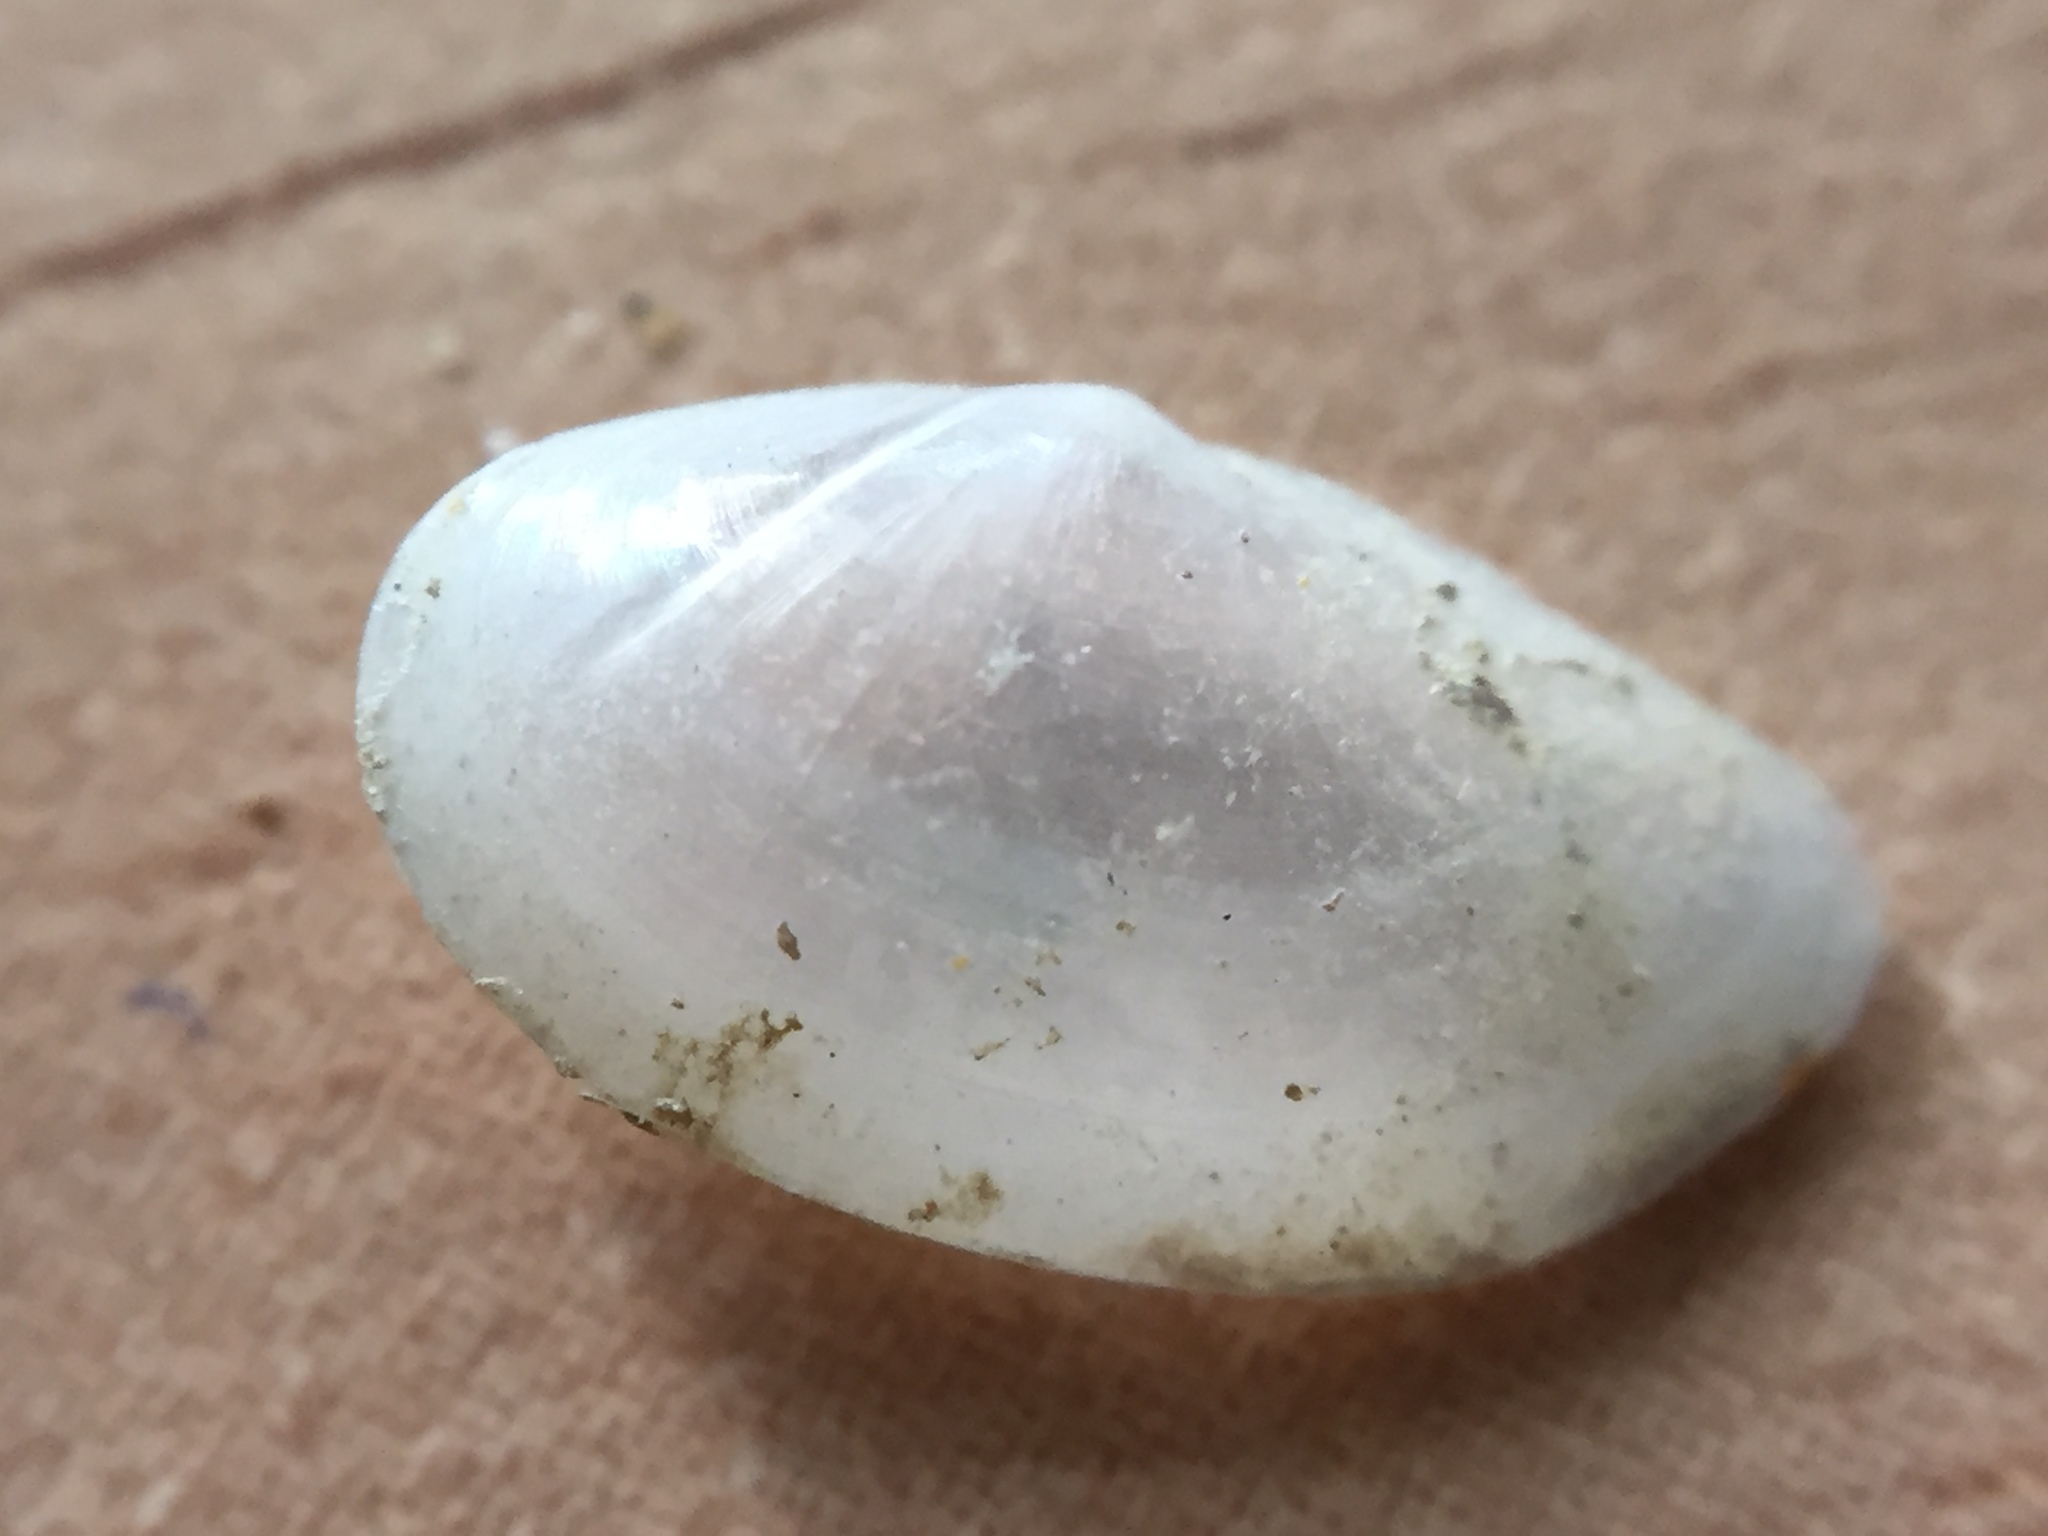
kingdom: Animalia
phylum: Mollusca
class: Bivalvia
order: Cardiida
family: Semelidae
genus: Theora
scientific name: Theora lubrica
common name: Asian semele
